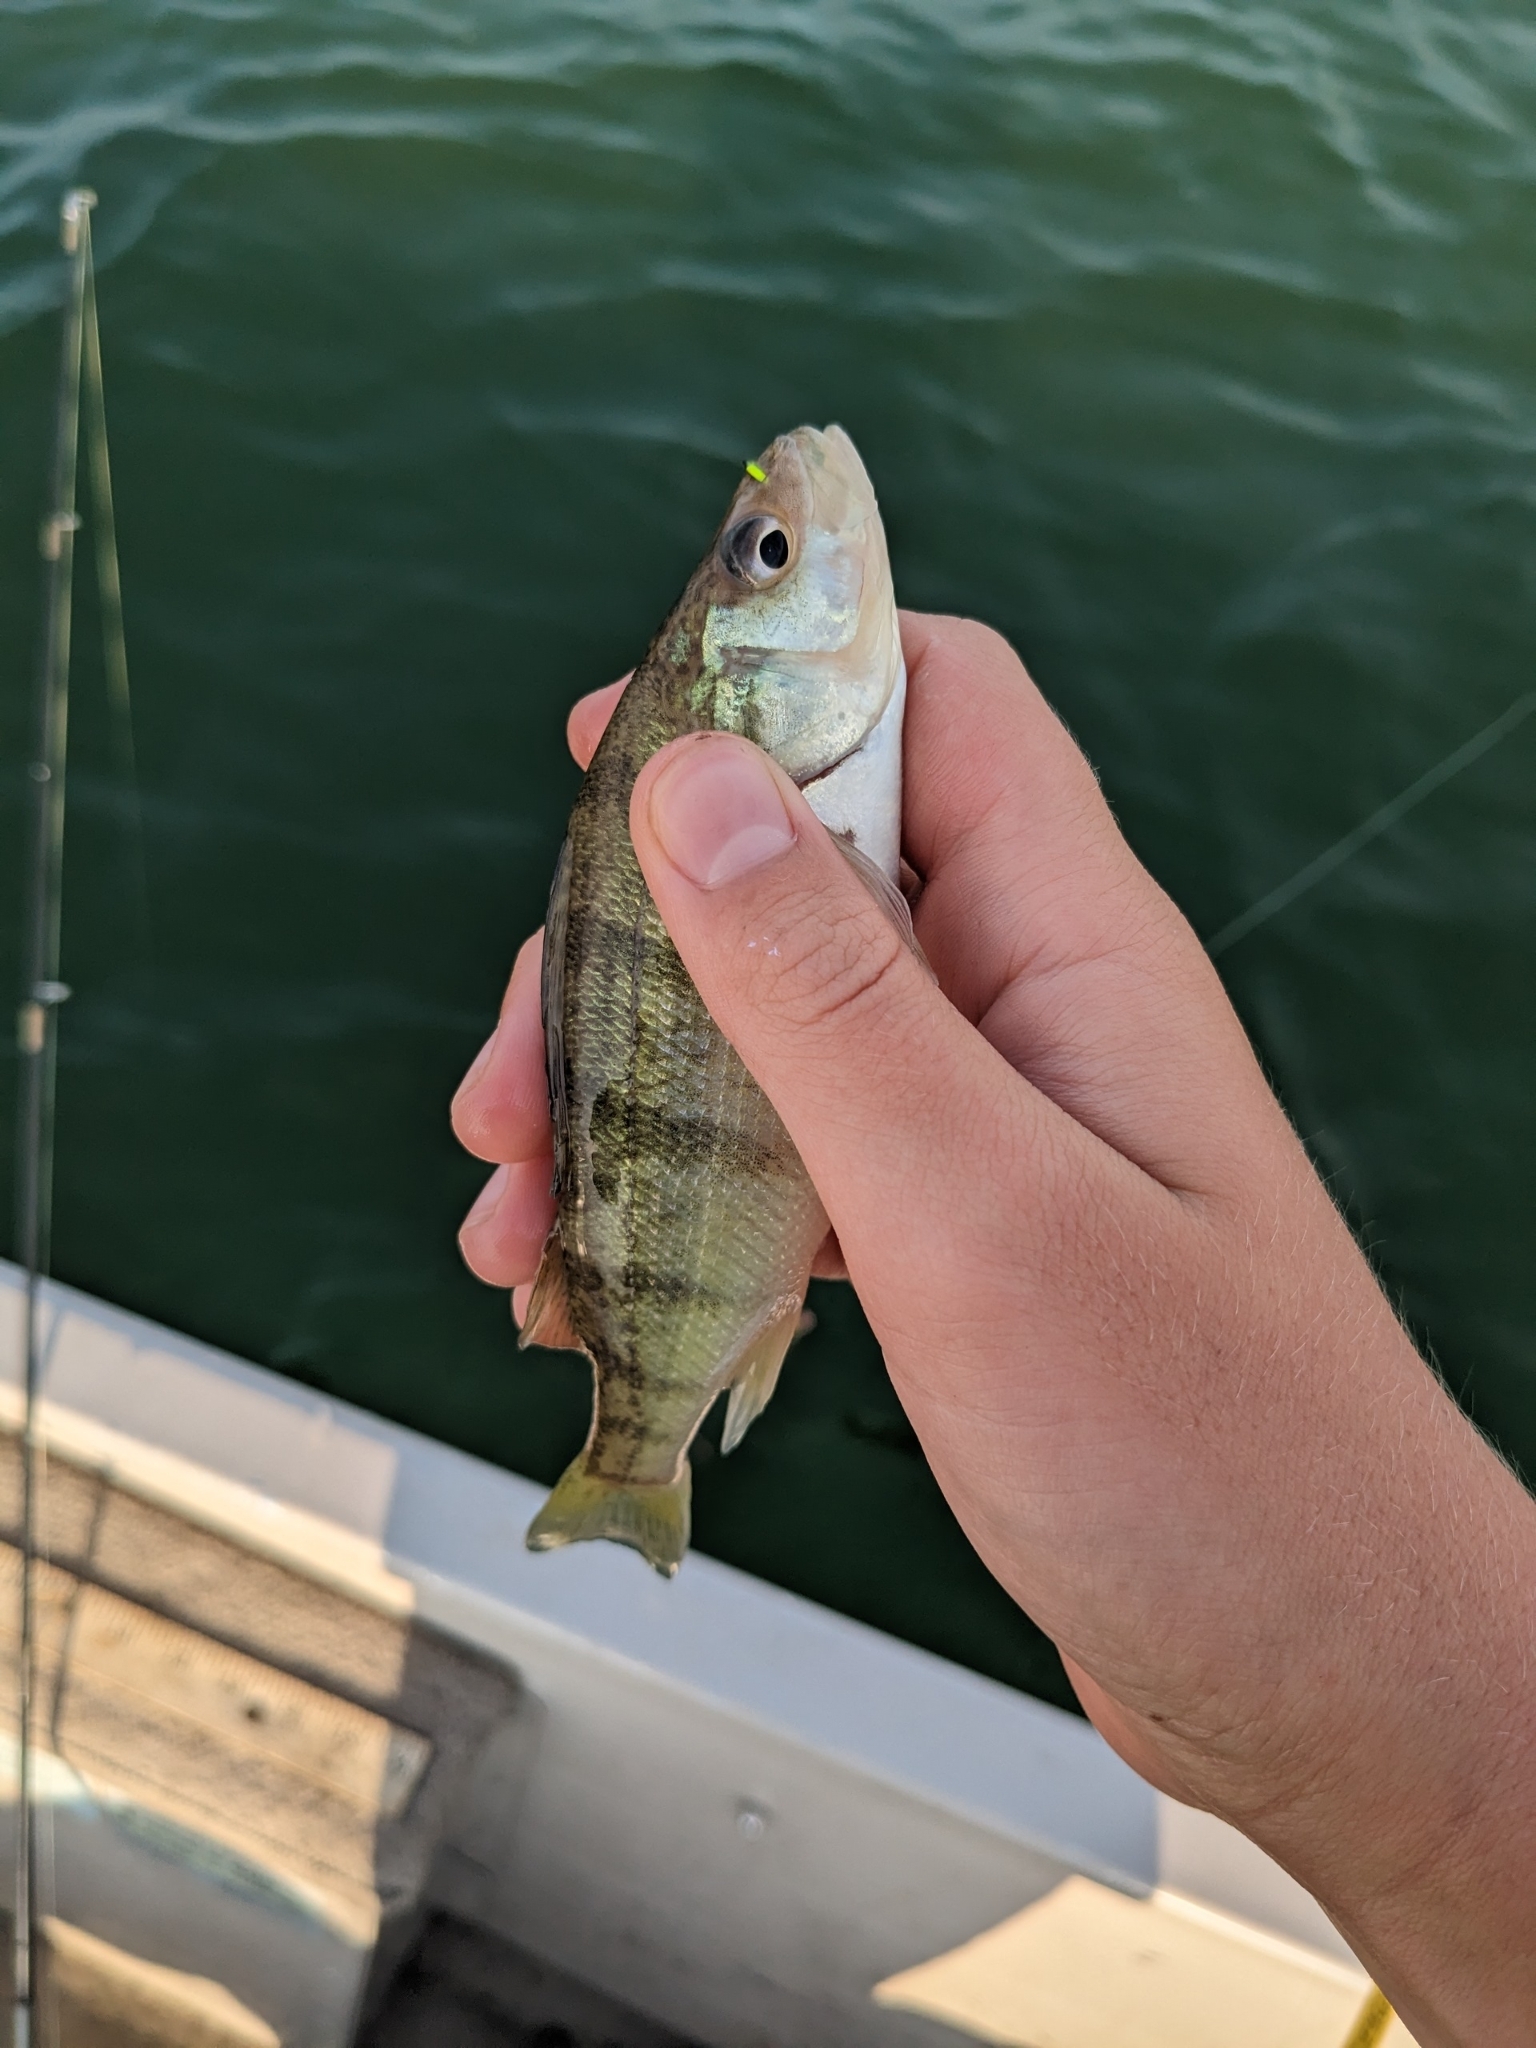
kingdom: Animalia
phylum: Chordata
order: Perciformes
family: Percidae
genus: Perca
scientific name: Perca flavescens
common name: Yellow perch
